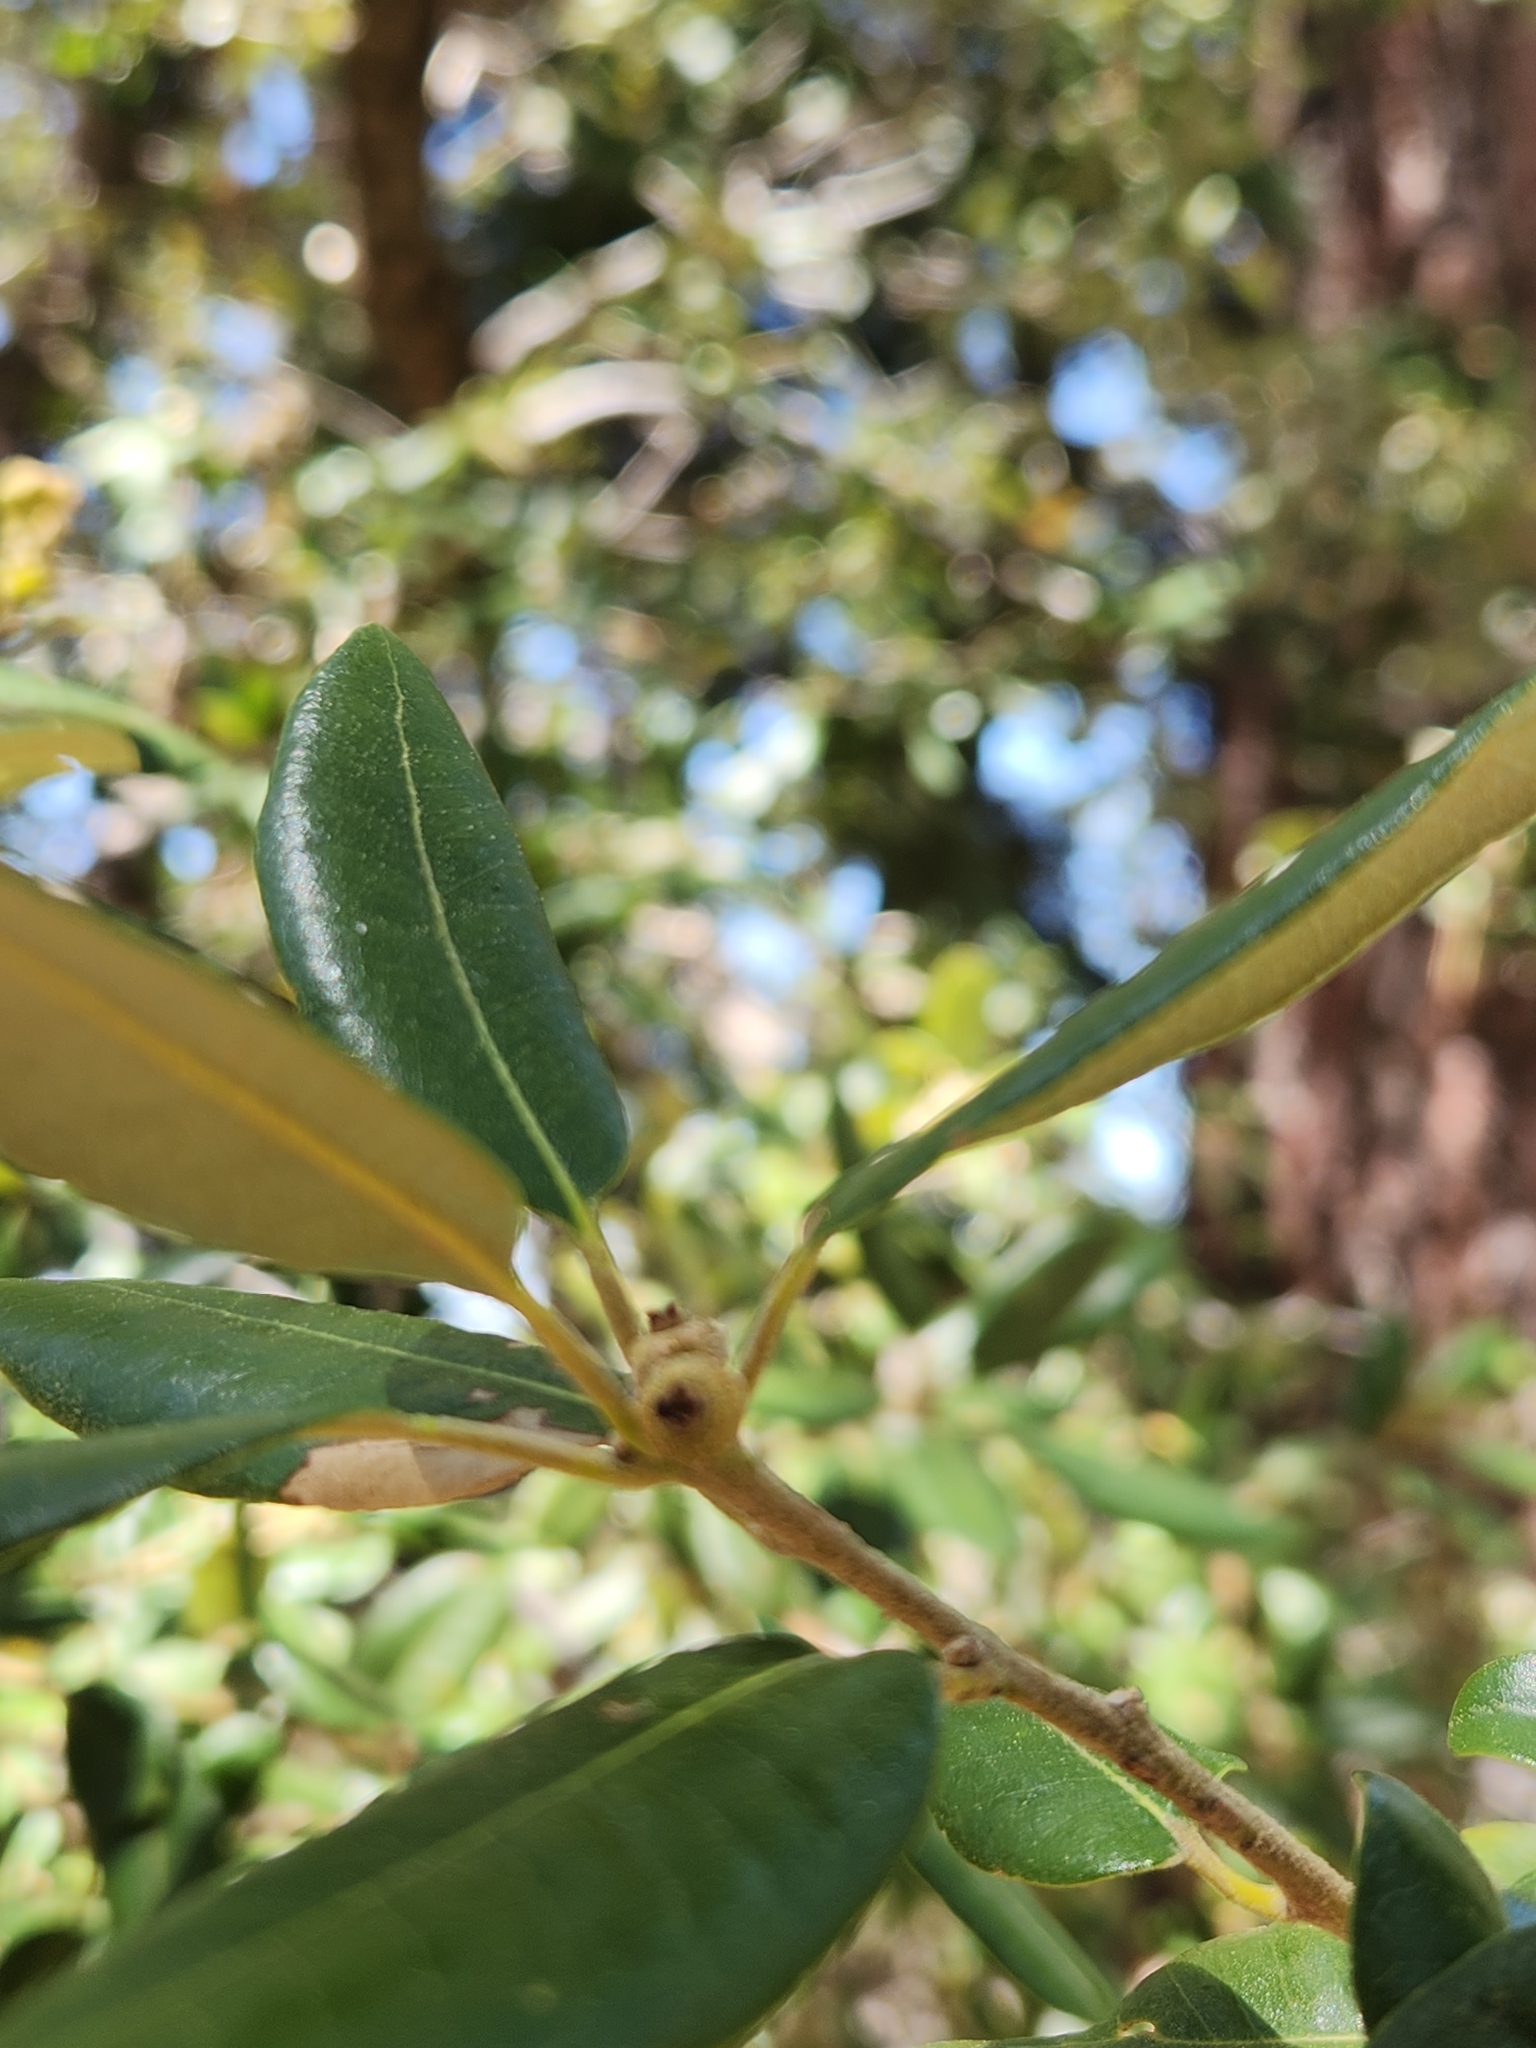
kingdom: Plantae
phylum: Tracheophyta
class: Magnoliopsida
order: Fagales
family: Fagaceae
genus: Quercus
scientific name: Quercus chrysolepis
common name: Canyon live oak
